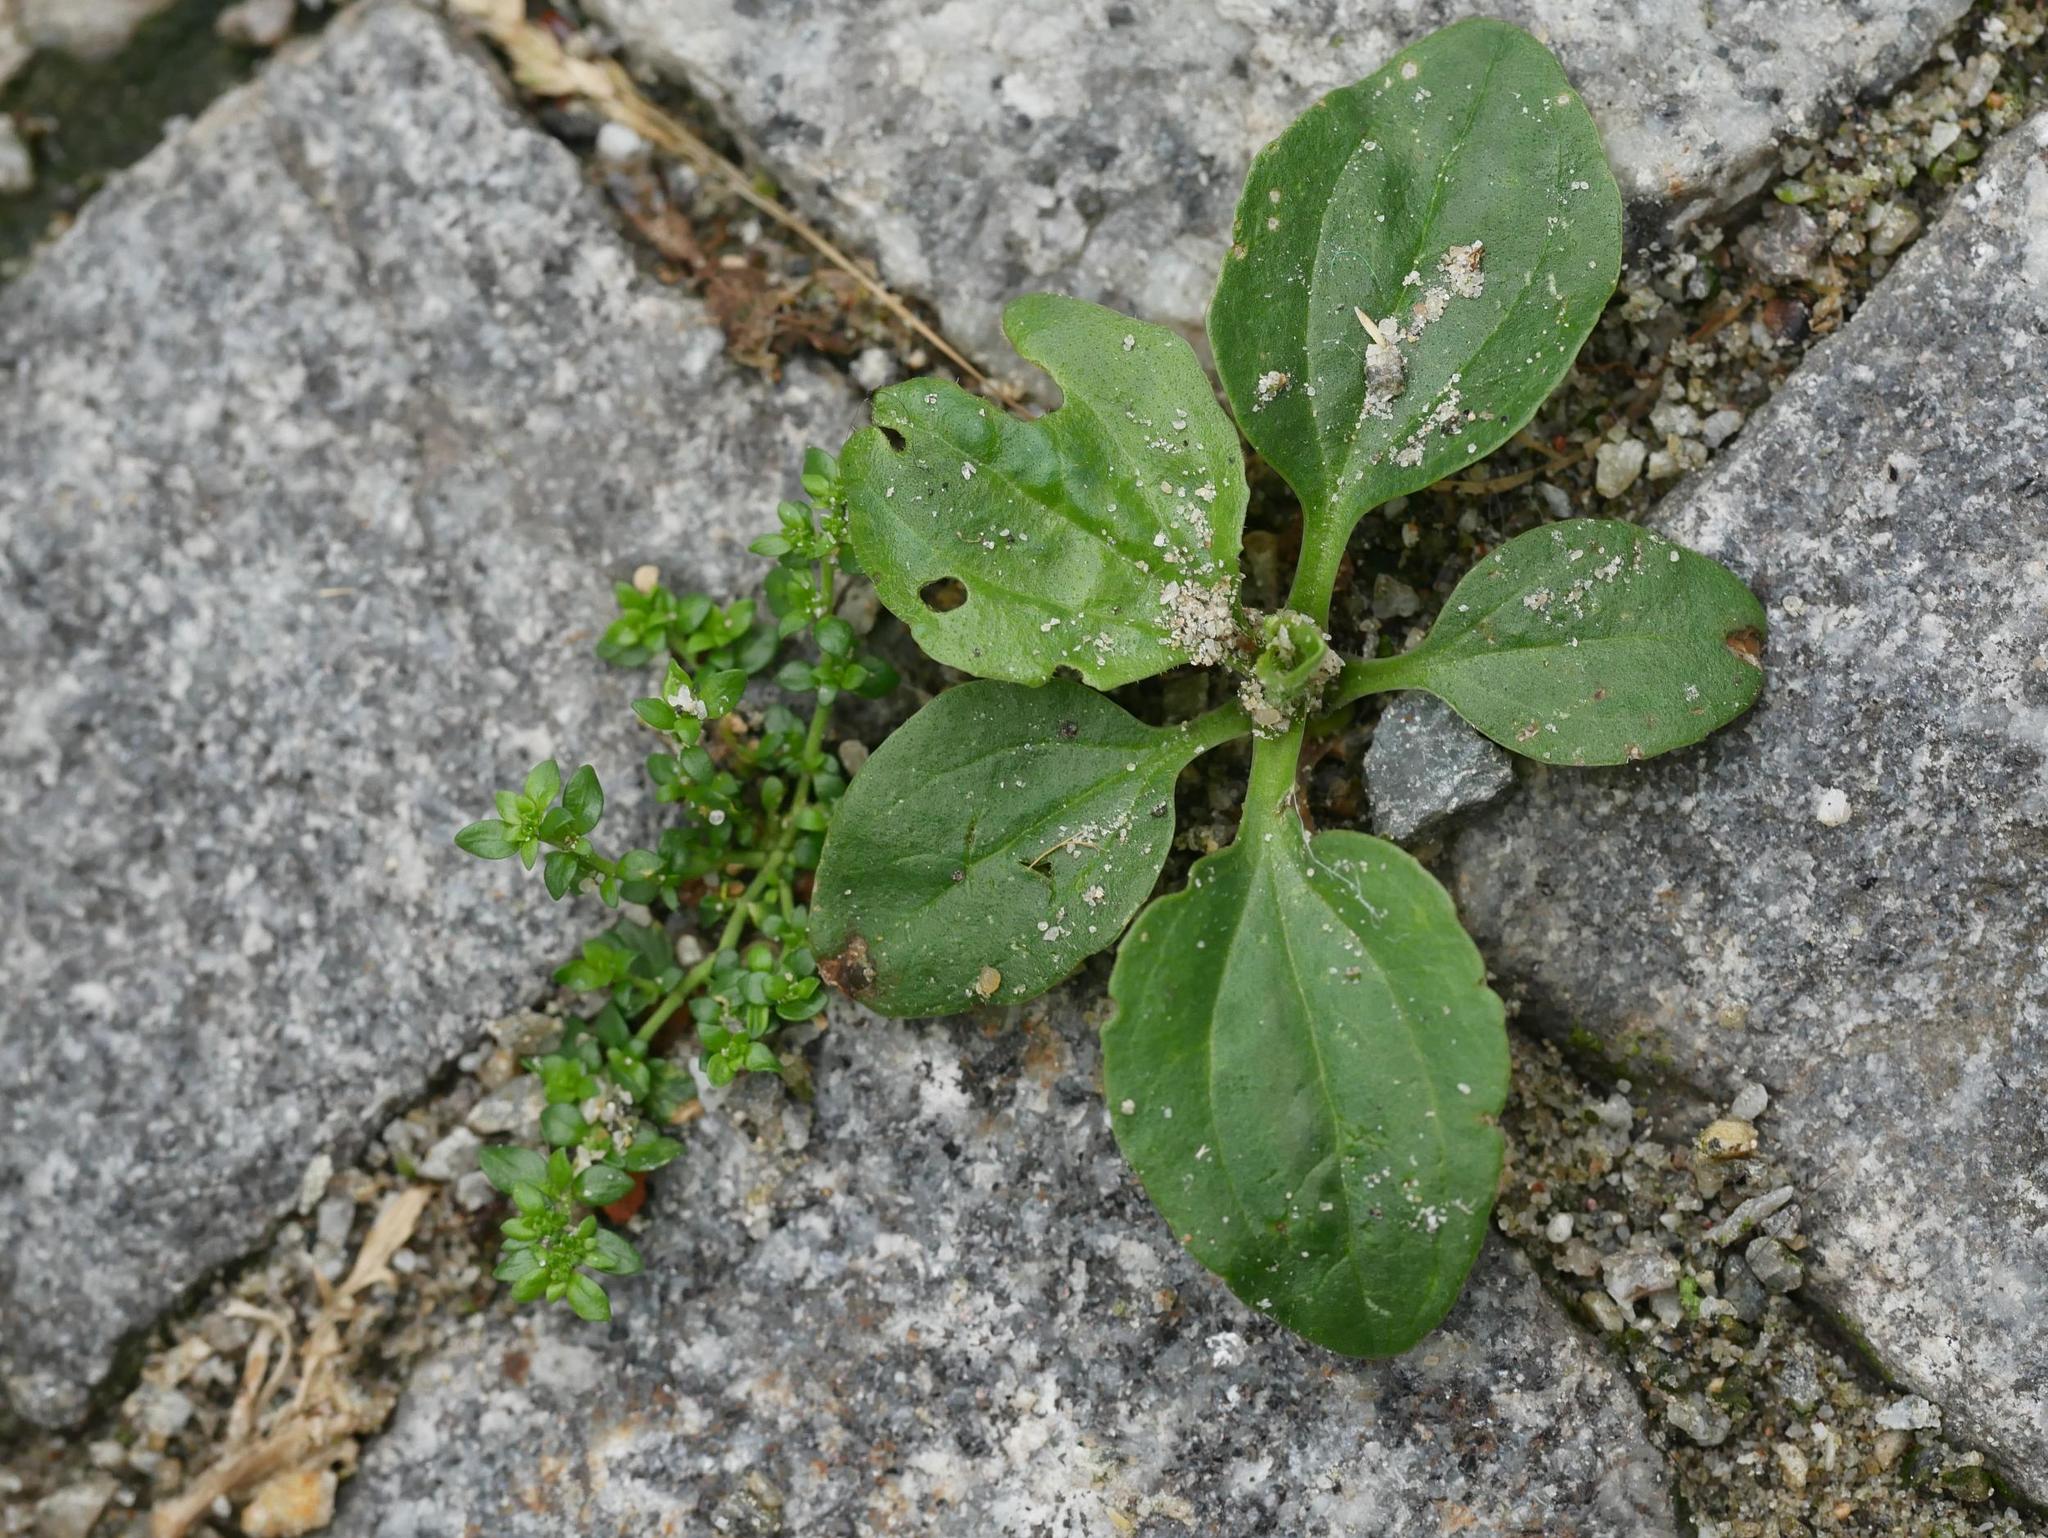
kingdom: Plantae
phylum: Tracheophyta
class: Magnoliopsida
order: Lamiales
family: Plantaginaceae
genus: Plantago
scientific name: Plantago major
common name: Common plantain
